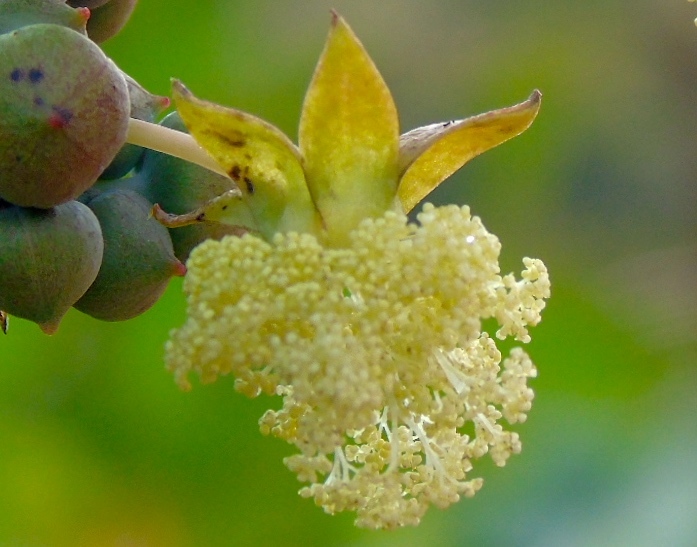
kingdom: Plantae
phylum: Tracheophyta
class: Magnoliopsida
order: Malpighiales
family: Euphorbiaceae
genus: Ricinus
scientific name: Ricinus communis
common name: Castor-oil-plant
